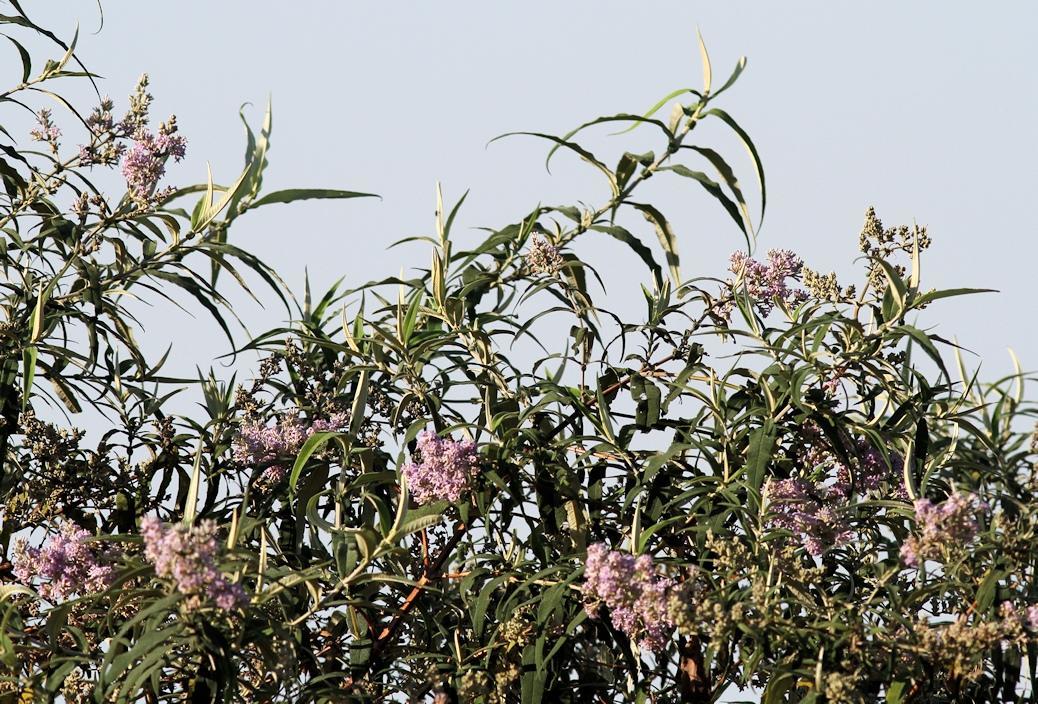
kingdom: Plantae
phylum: Tracheophyta
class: Magnoliopsida
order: Lamiales
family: Scrophulariaceae
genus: Buddleja
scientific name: Buddleja salviifolia
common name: Sagewood
